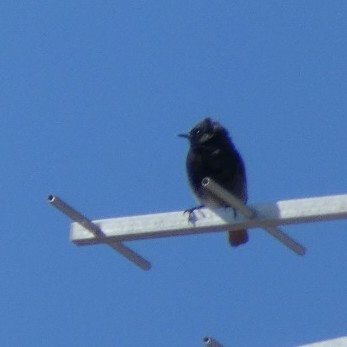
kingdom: Animalia
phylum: Chordata
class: Aves
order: Passeriformes
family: Muscicapidae
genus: Phoenicurus
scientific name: Phoenicurus ochruros
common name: Black redstart
